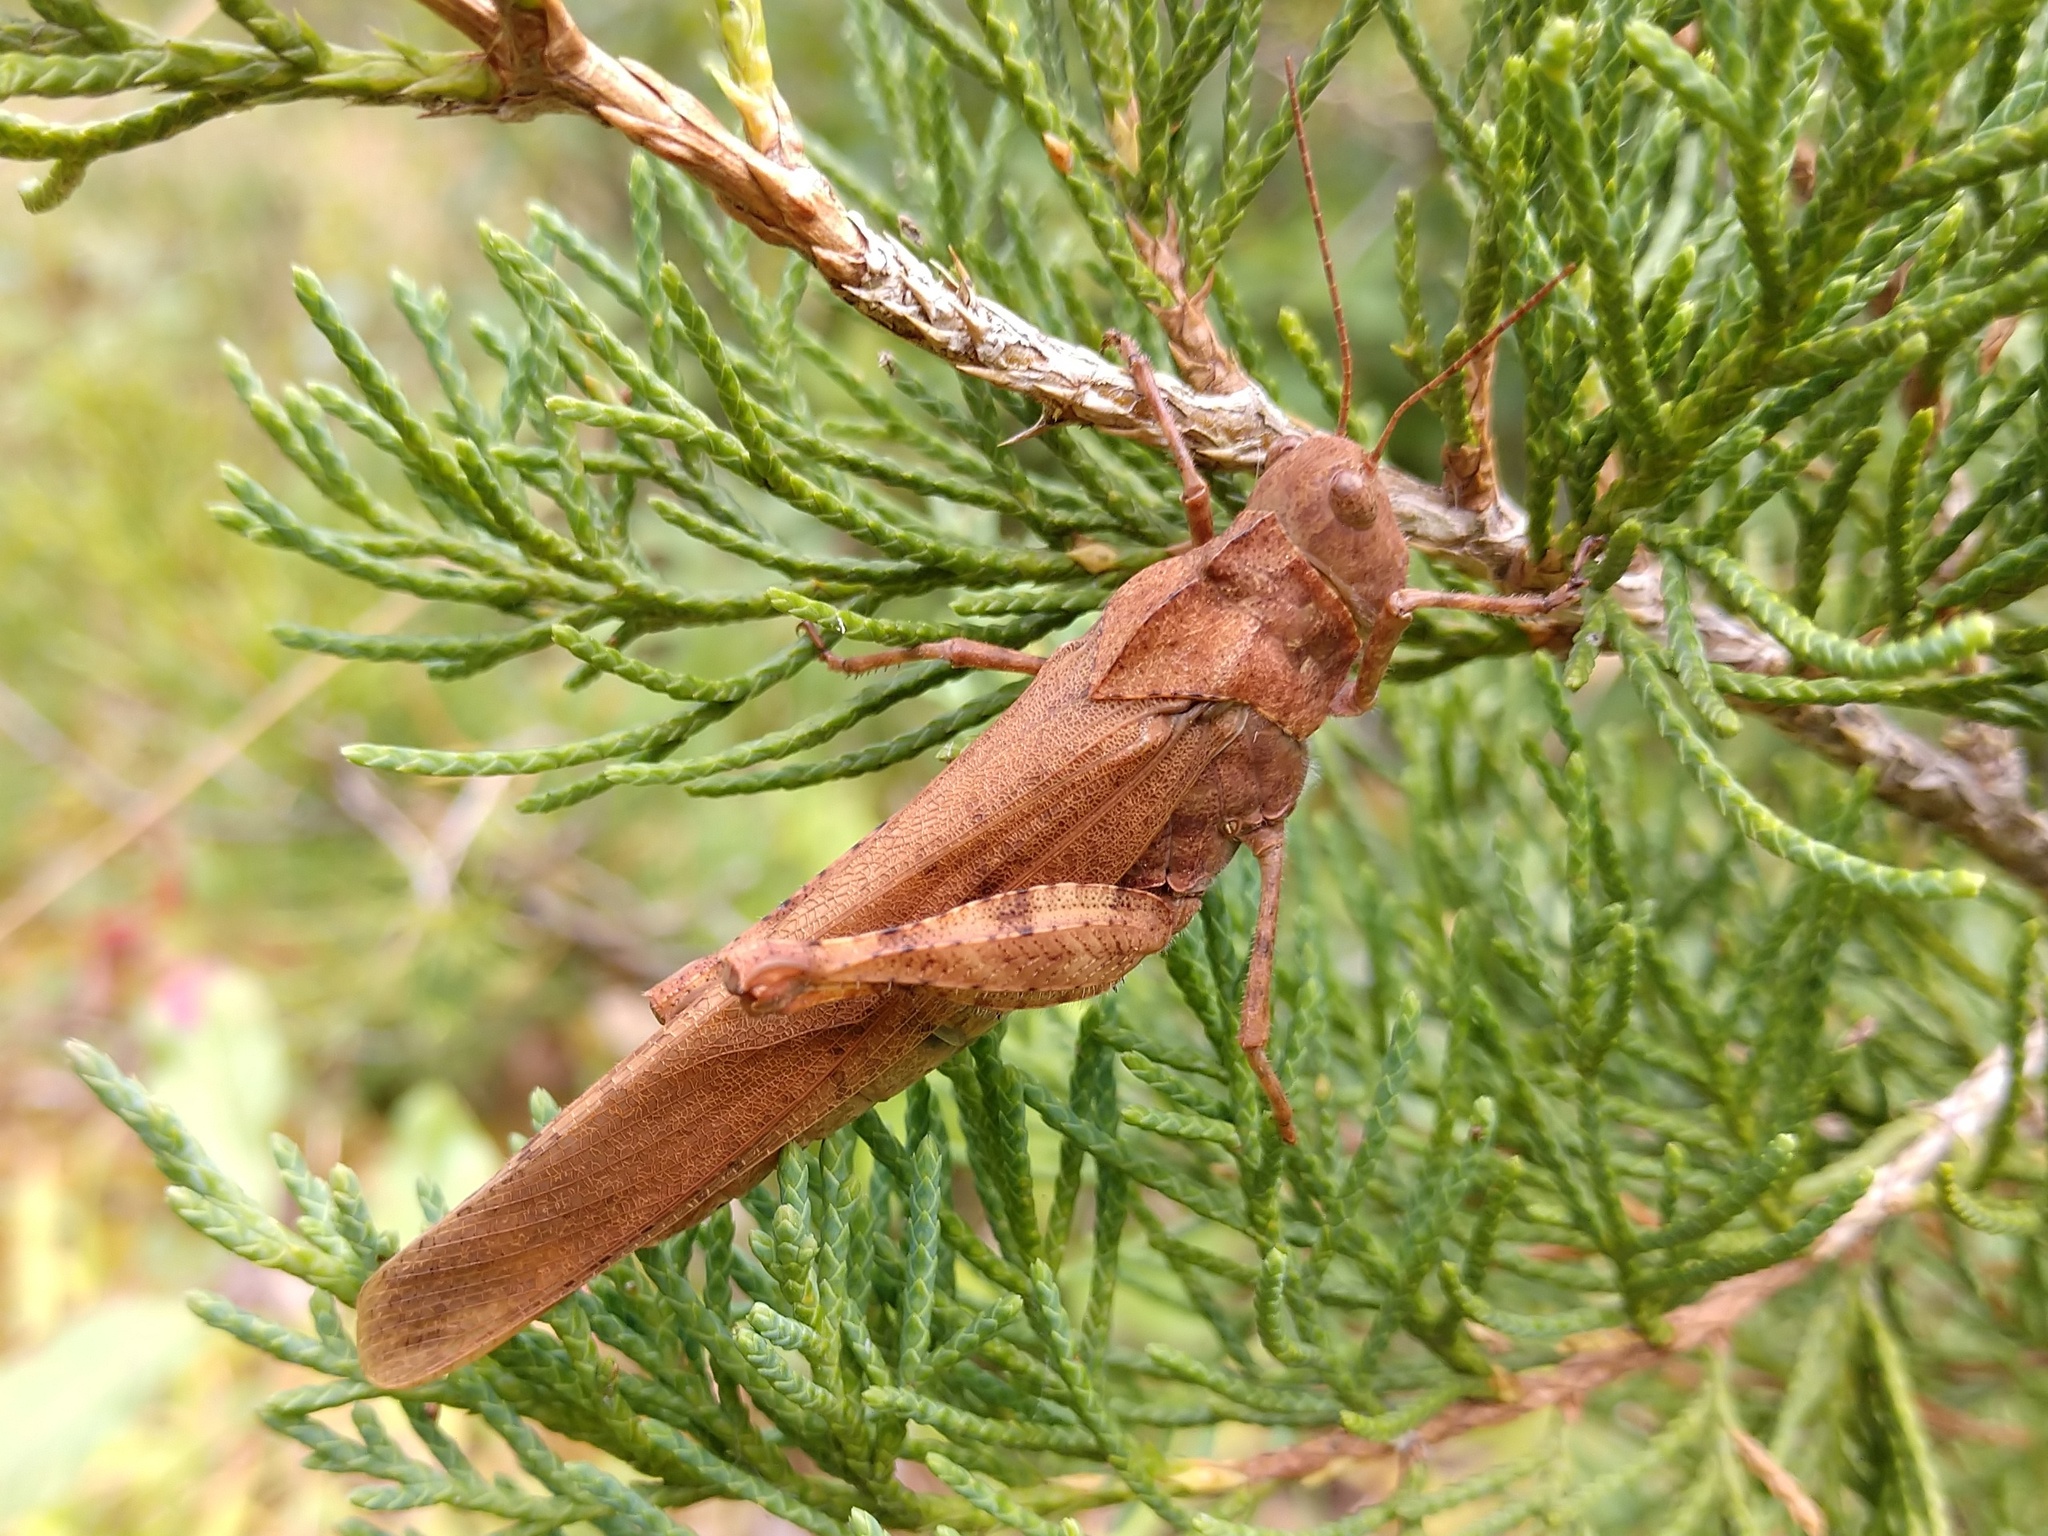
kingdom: Animalia
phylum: Arthropoda
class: Insecta
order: Orthoptera
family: Acrididae
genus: Dissosteira
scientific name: Dissosteira carolina
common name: Carolina grasshopper
